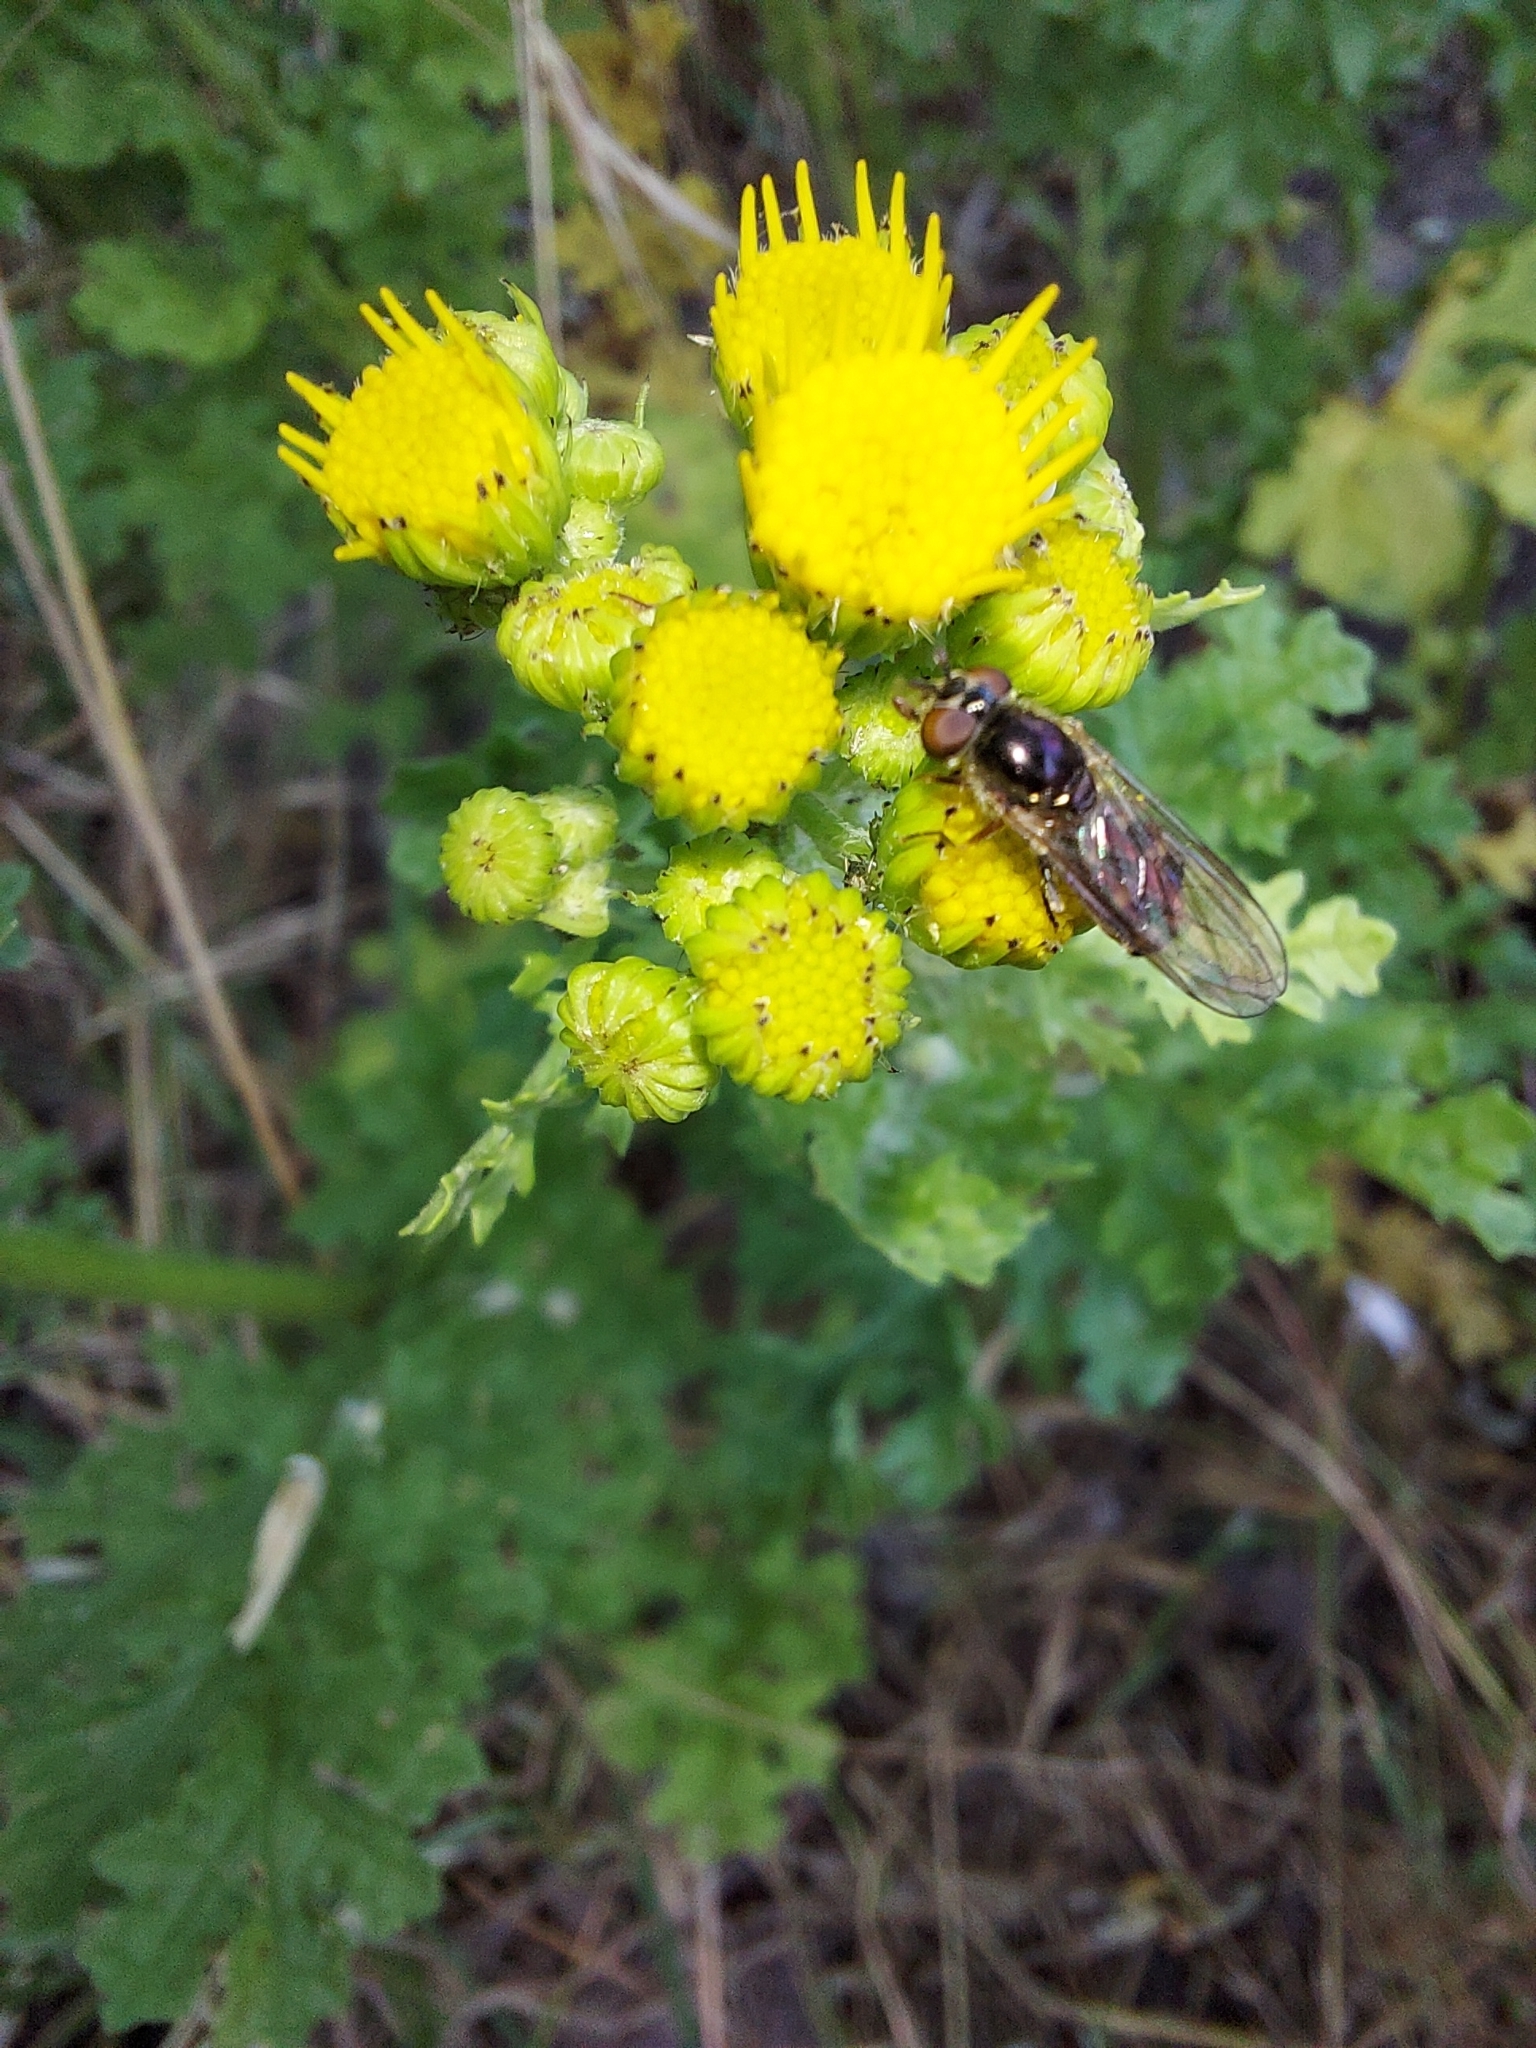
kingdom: Animalia
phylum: Arthropoda
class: Insecta
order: Diptera
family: Syrphidae
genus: Platycheirus
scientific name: Platycheirus
